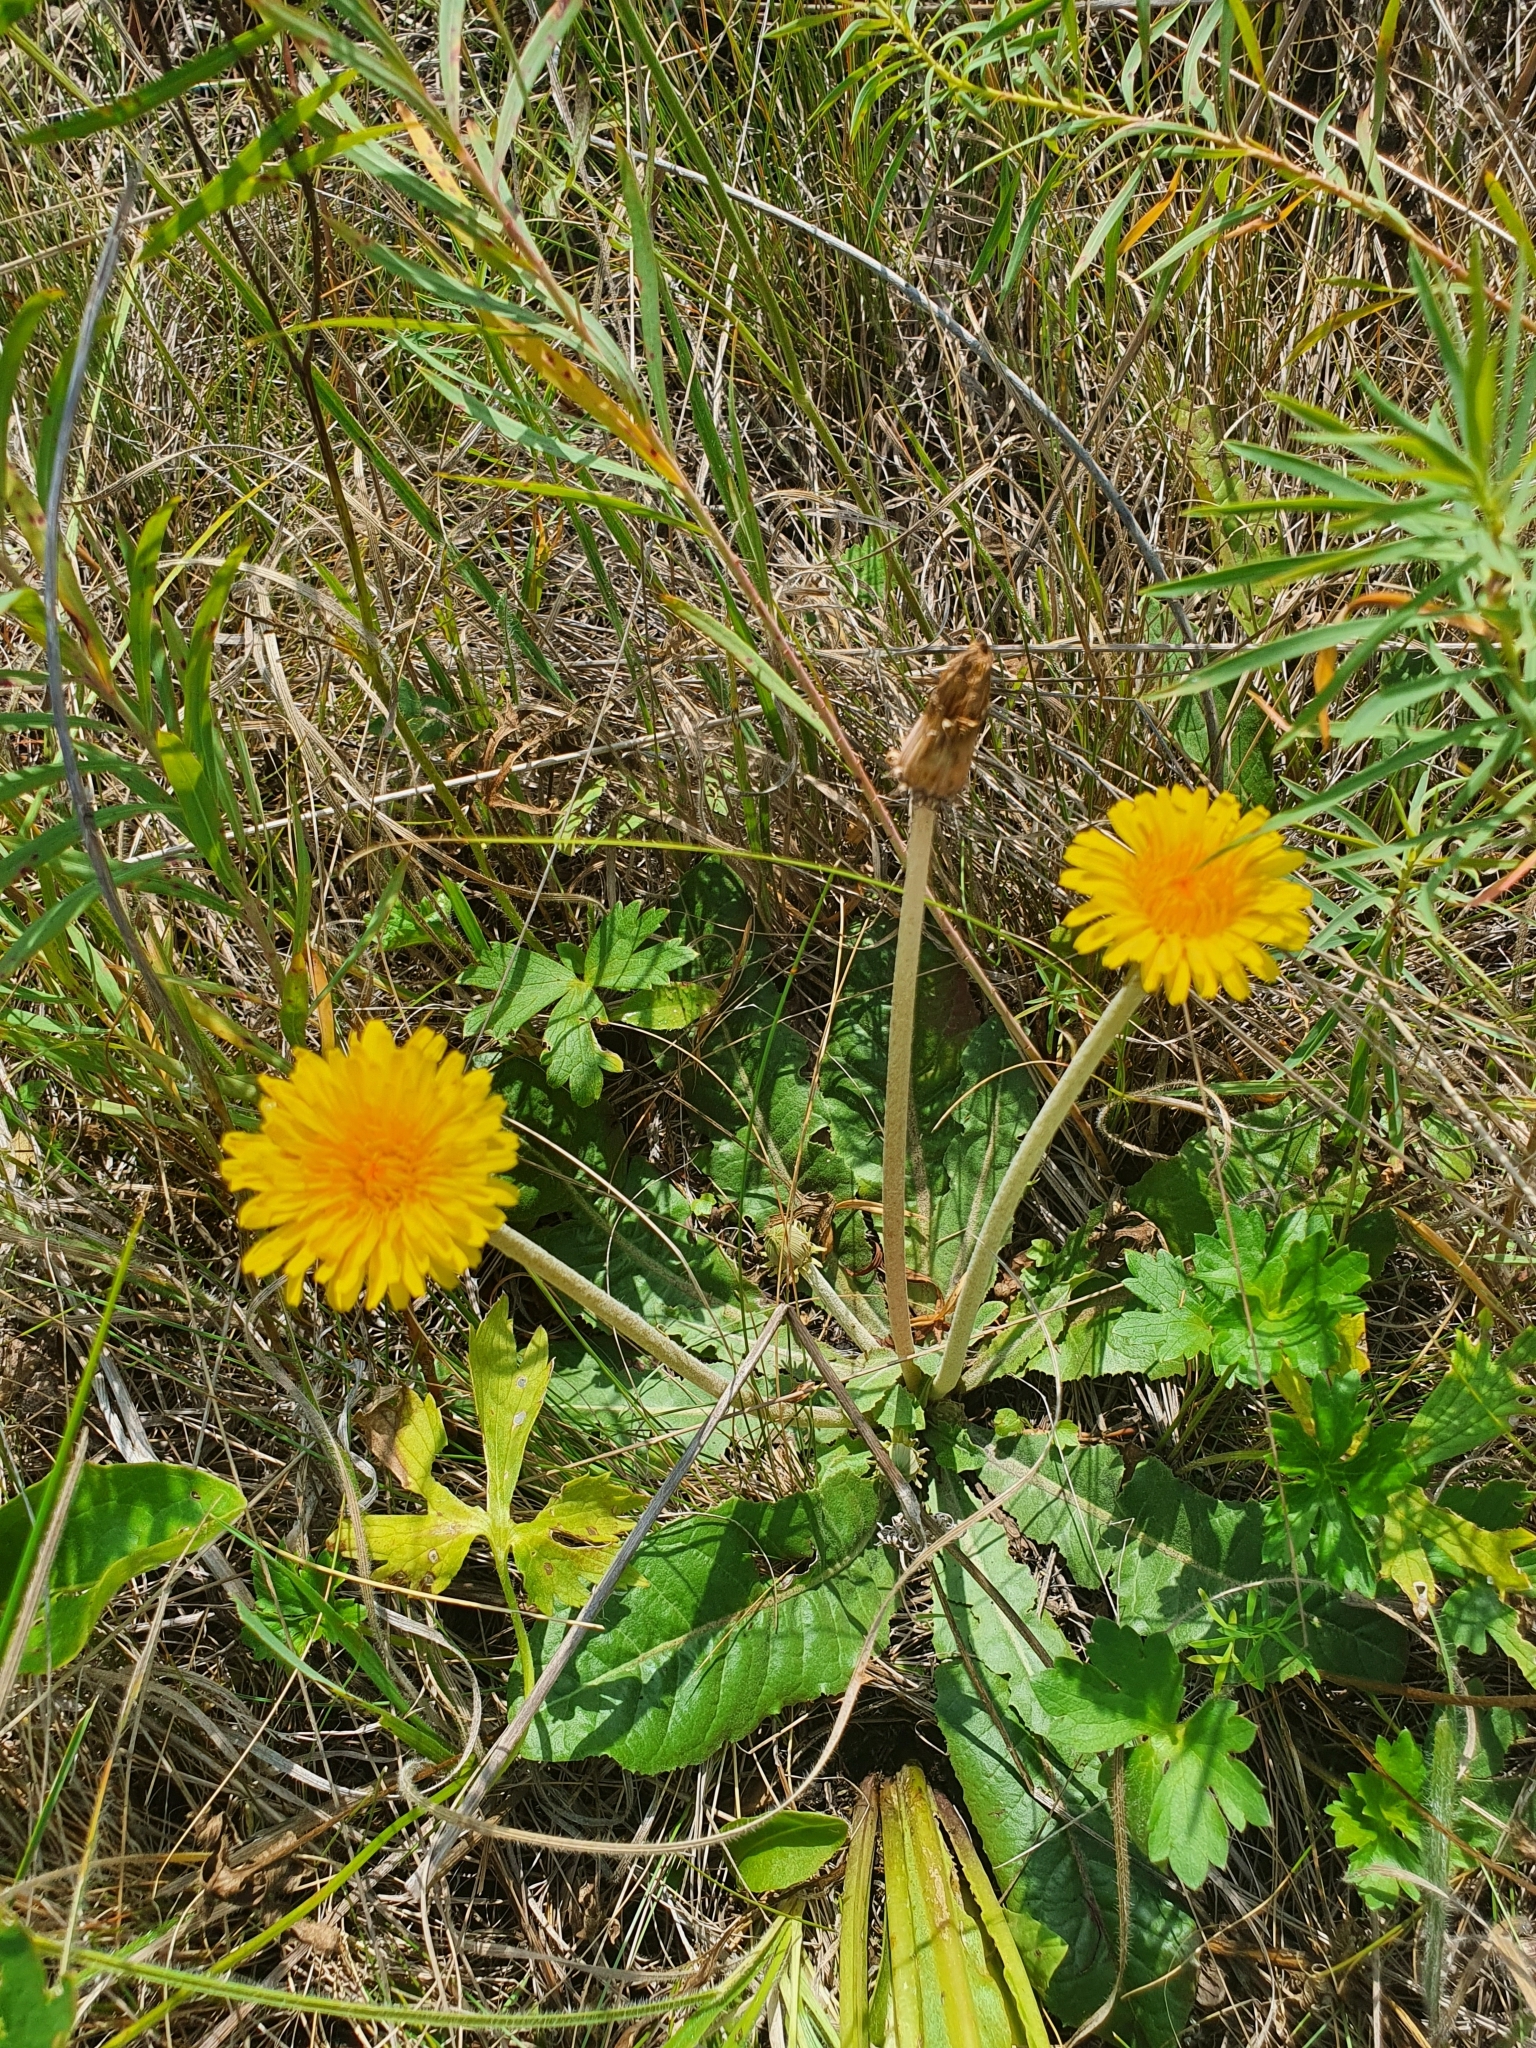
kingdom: Plantae
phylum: Tracheophyta
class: Magnoliopsida
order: Asterales
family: Asteraceae
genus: Taraxacum
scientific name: Taraxacum serotinum
